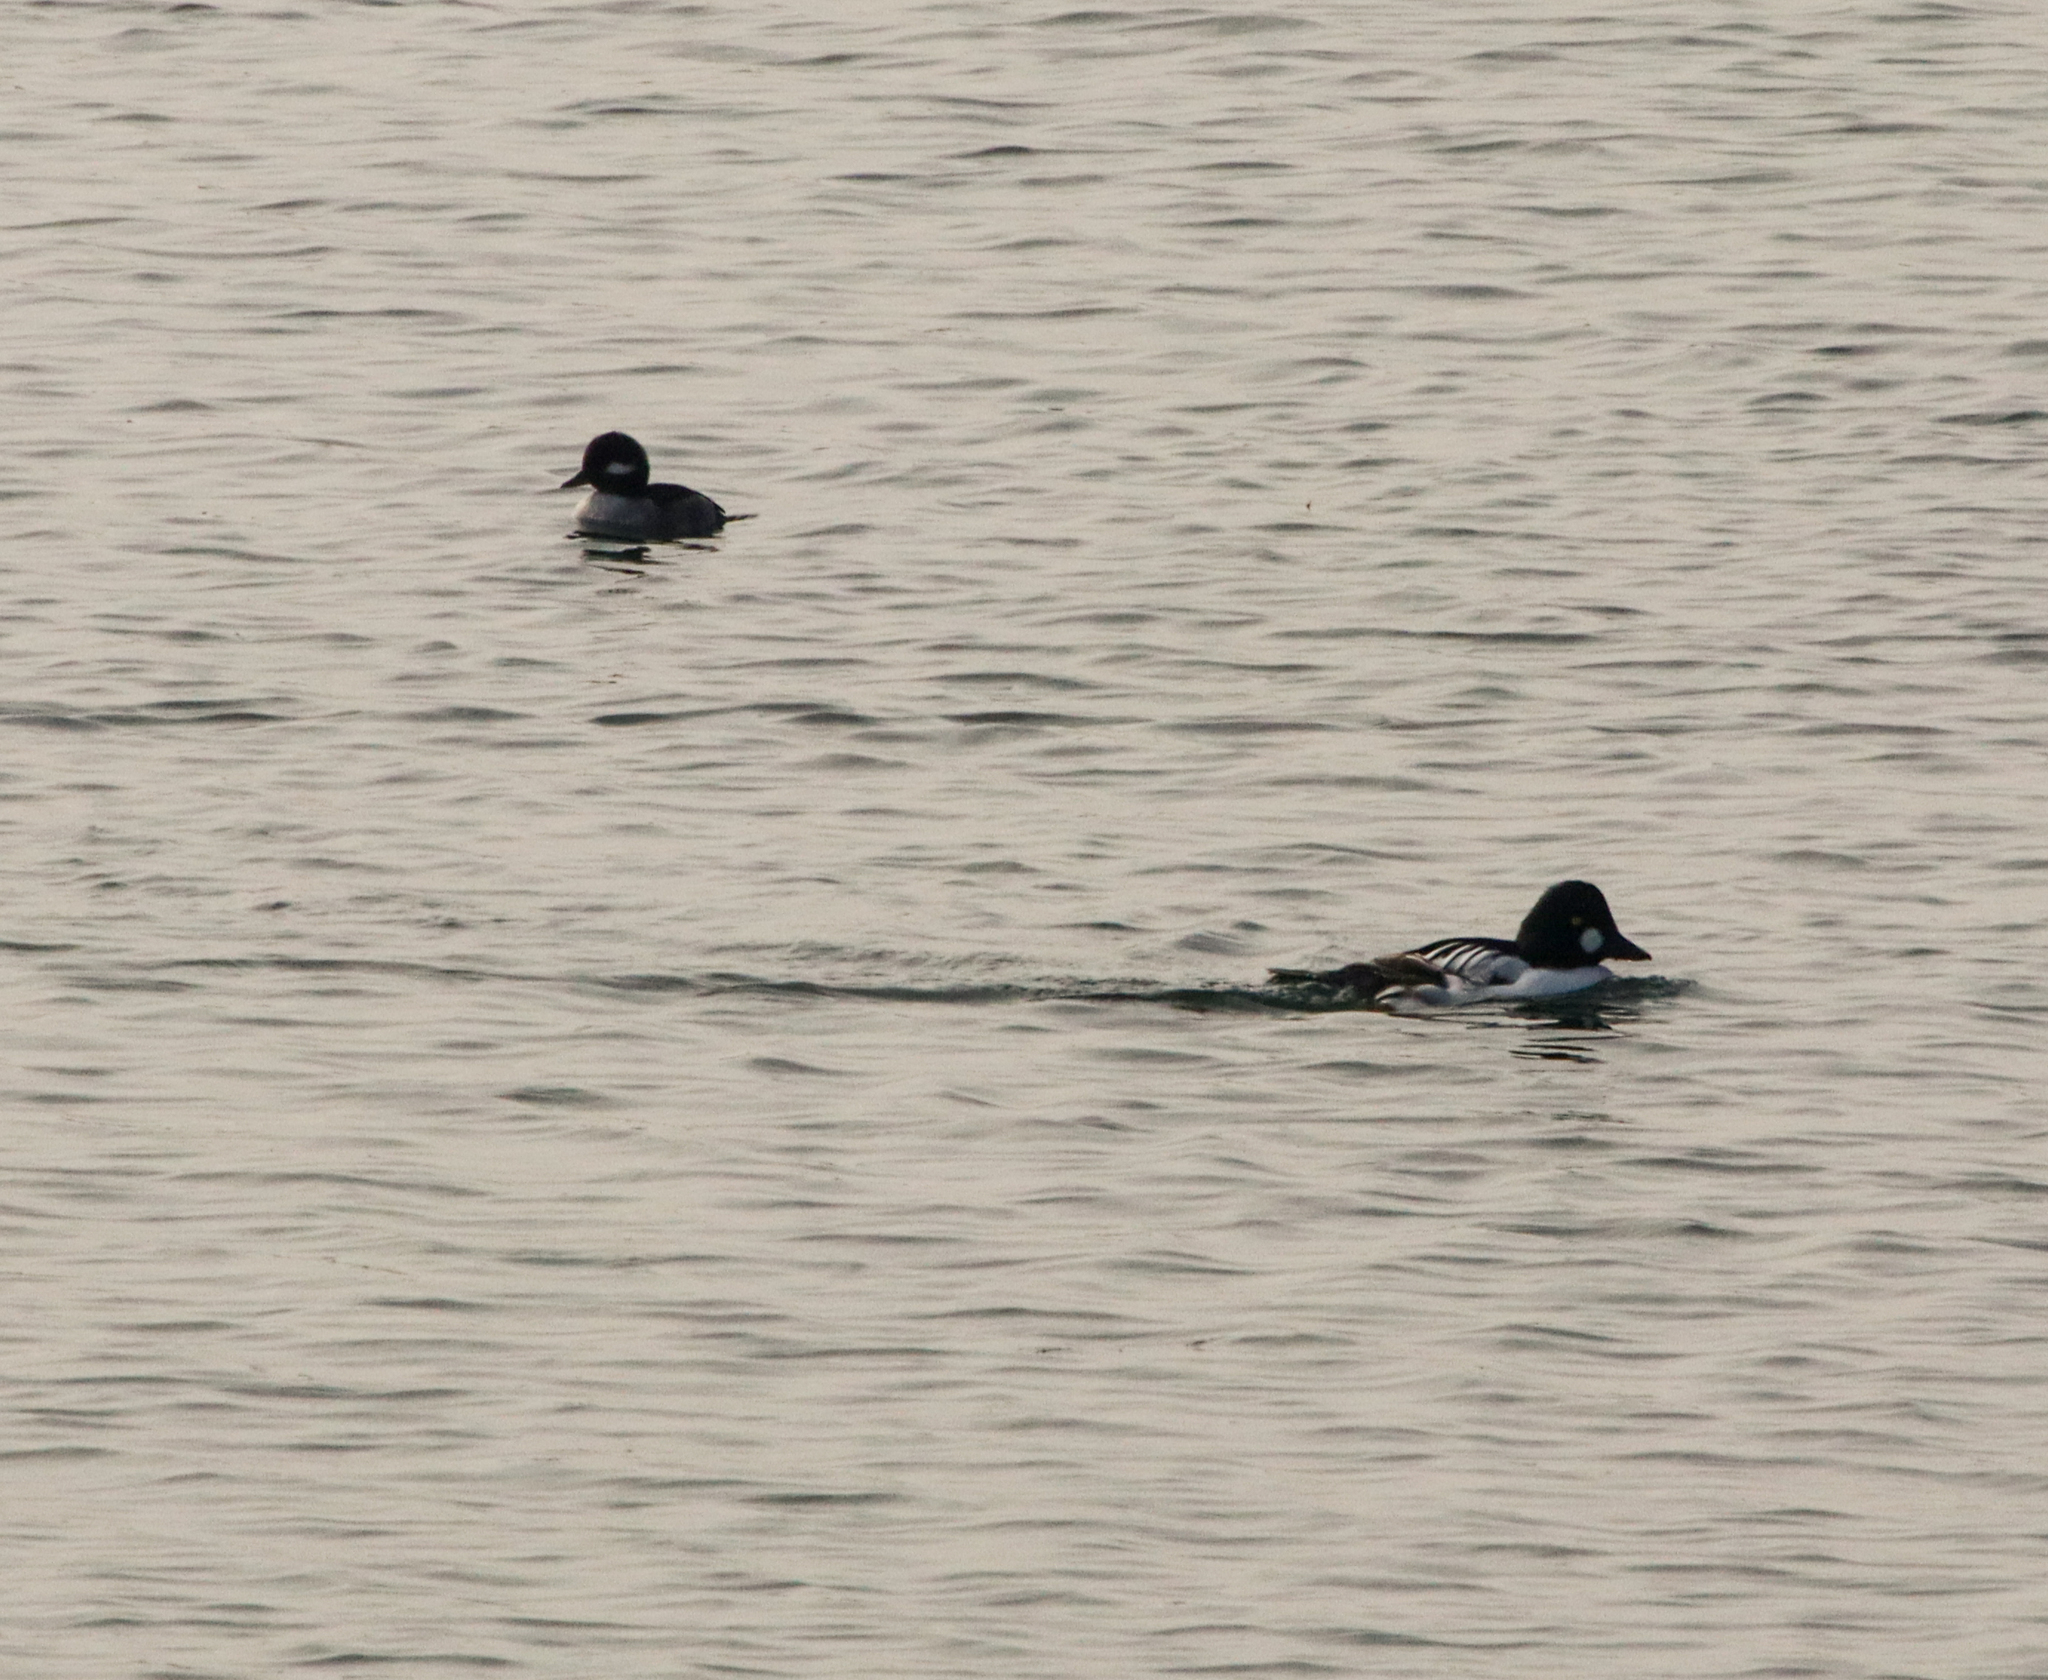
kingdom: Animalia
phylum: Chordata
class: Aves
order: Anseriformes
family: Anatidae
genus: Bucephala
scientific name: Bucephala clangula
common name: Common goldeneye
